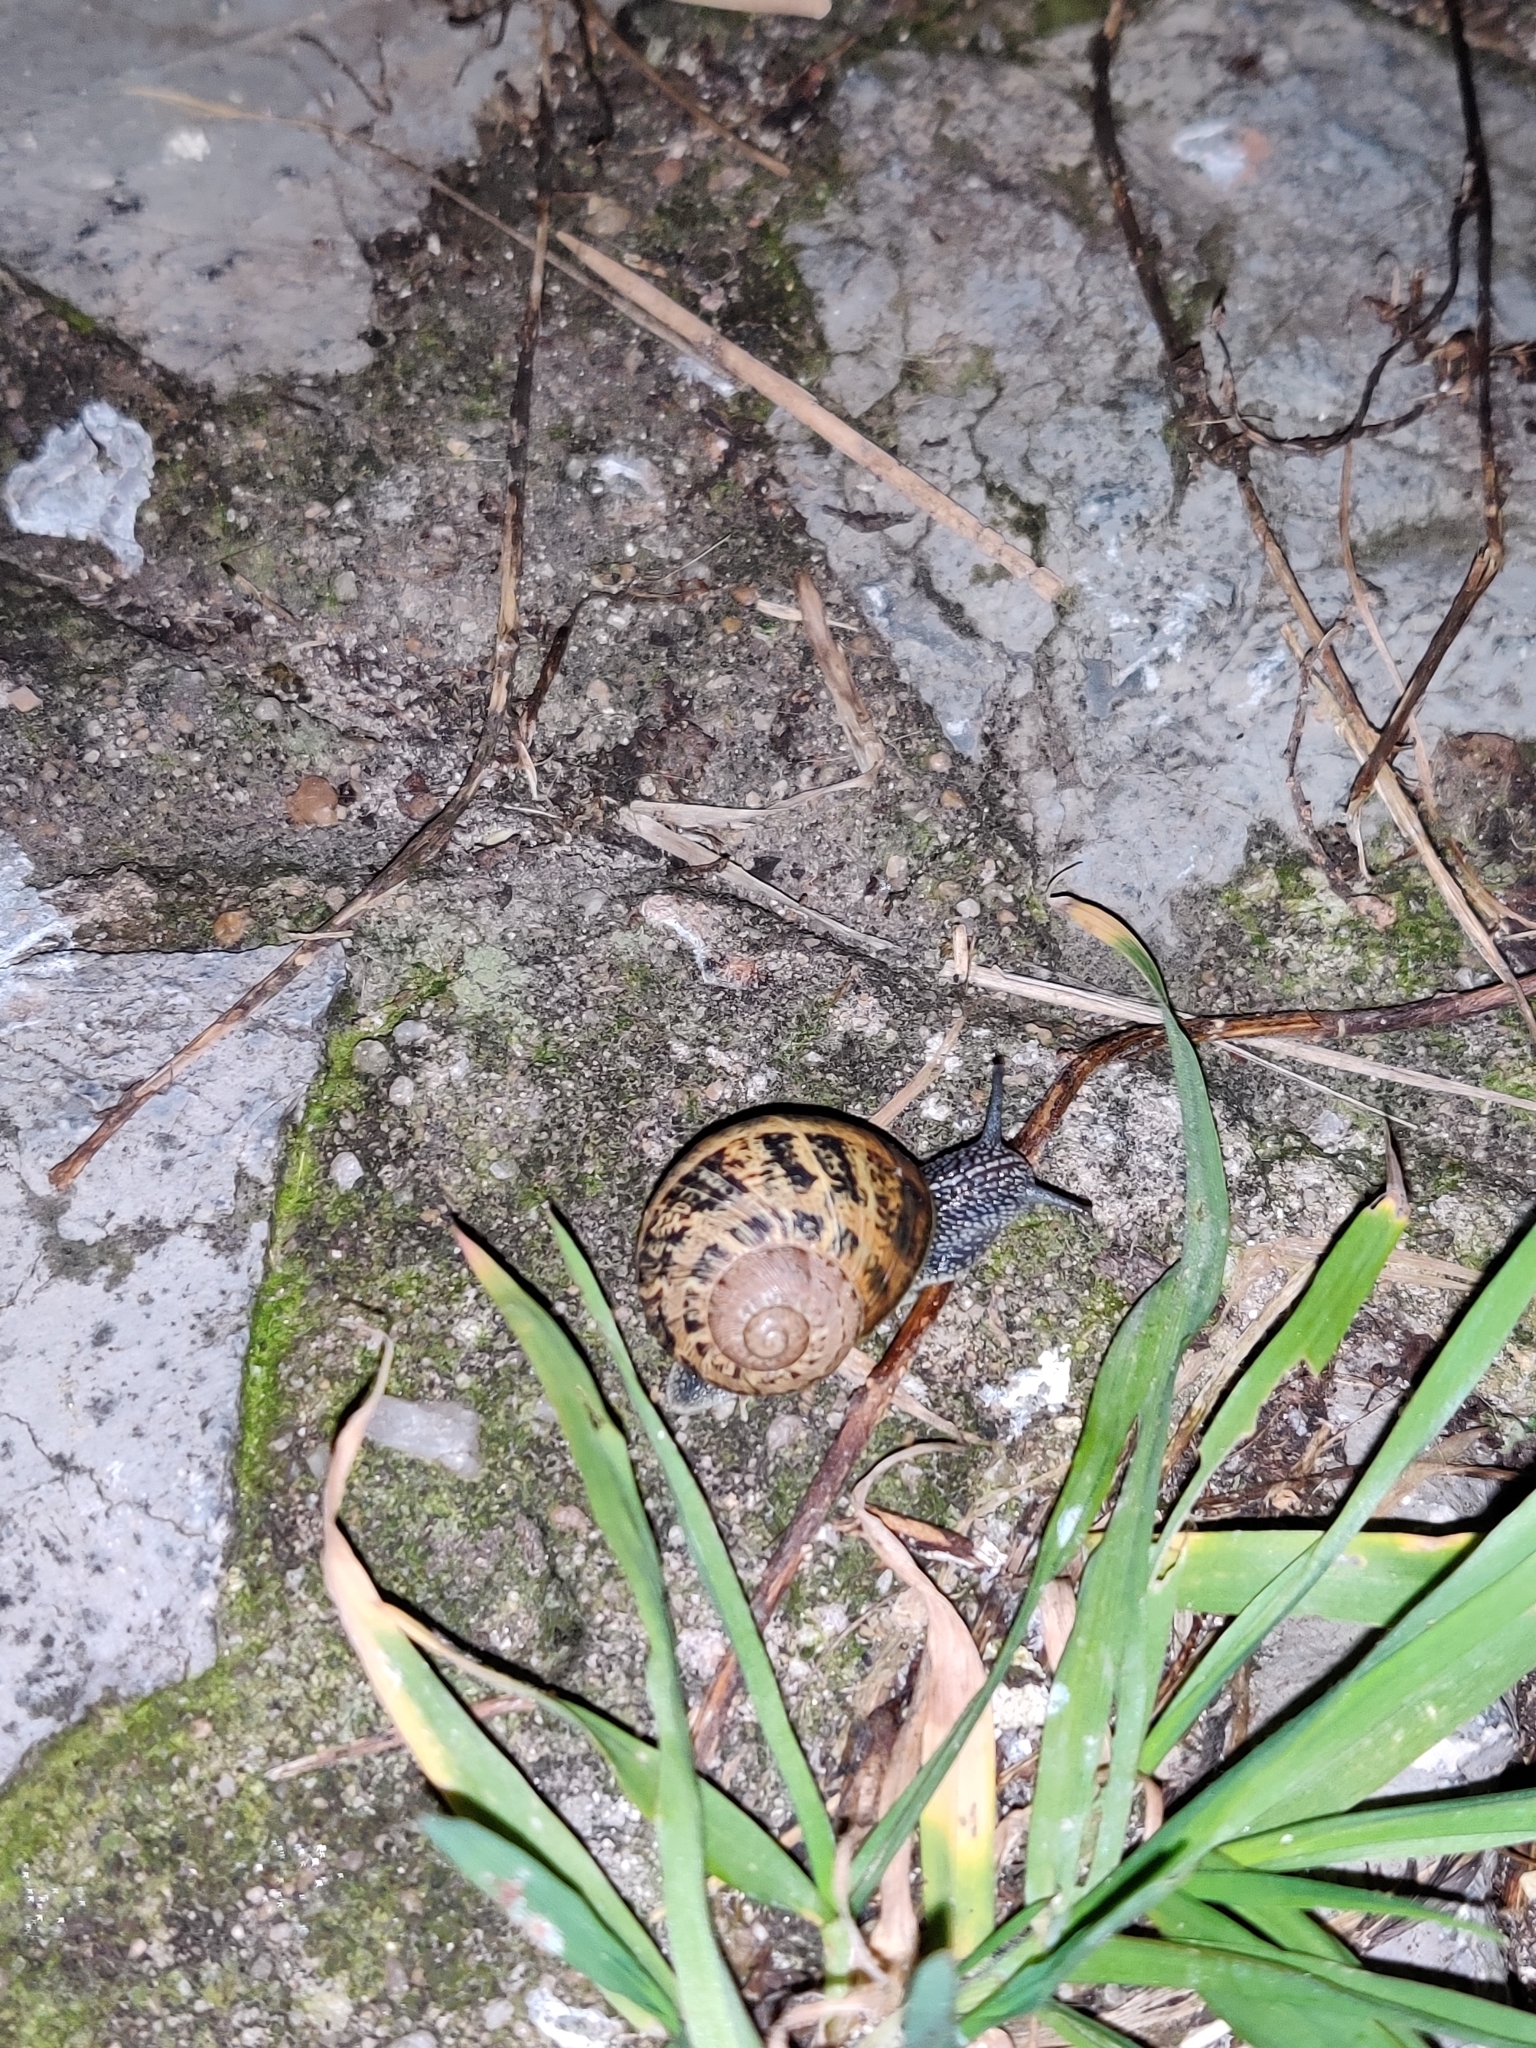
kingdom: Animalia
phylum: Mollusca
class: Gastropoda
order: Stylommatophora
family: Helicidae
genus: Cornu
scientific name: Cornu aspersum
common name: Brown garden snail
